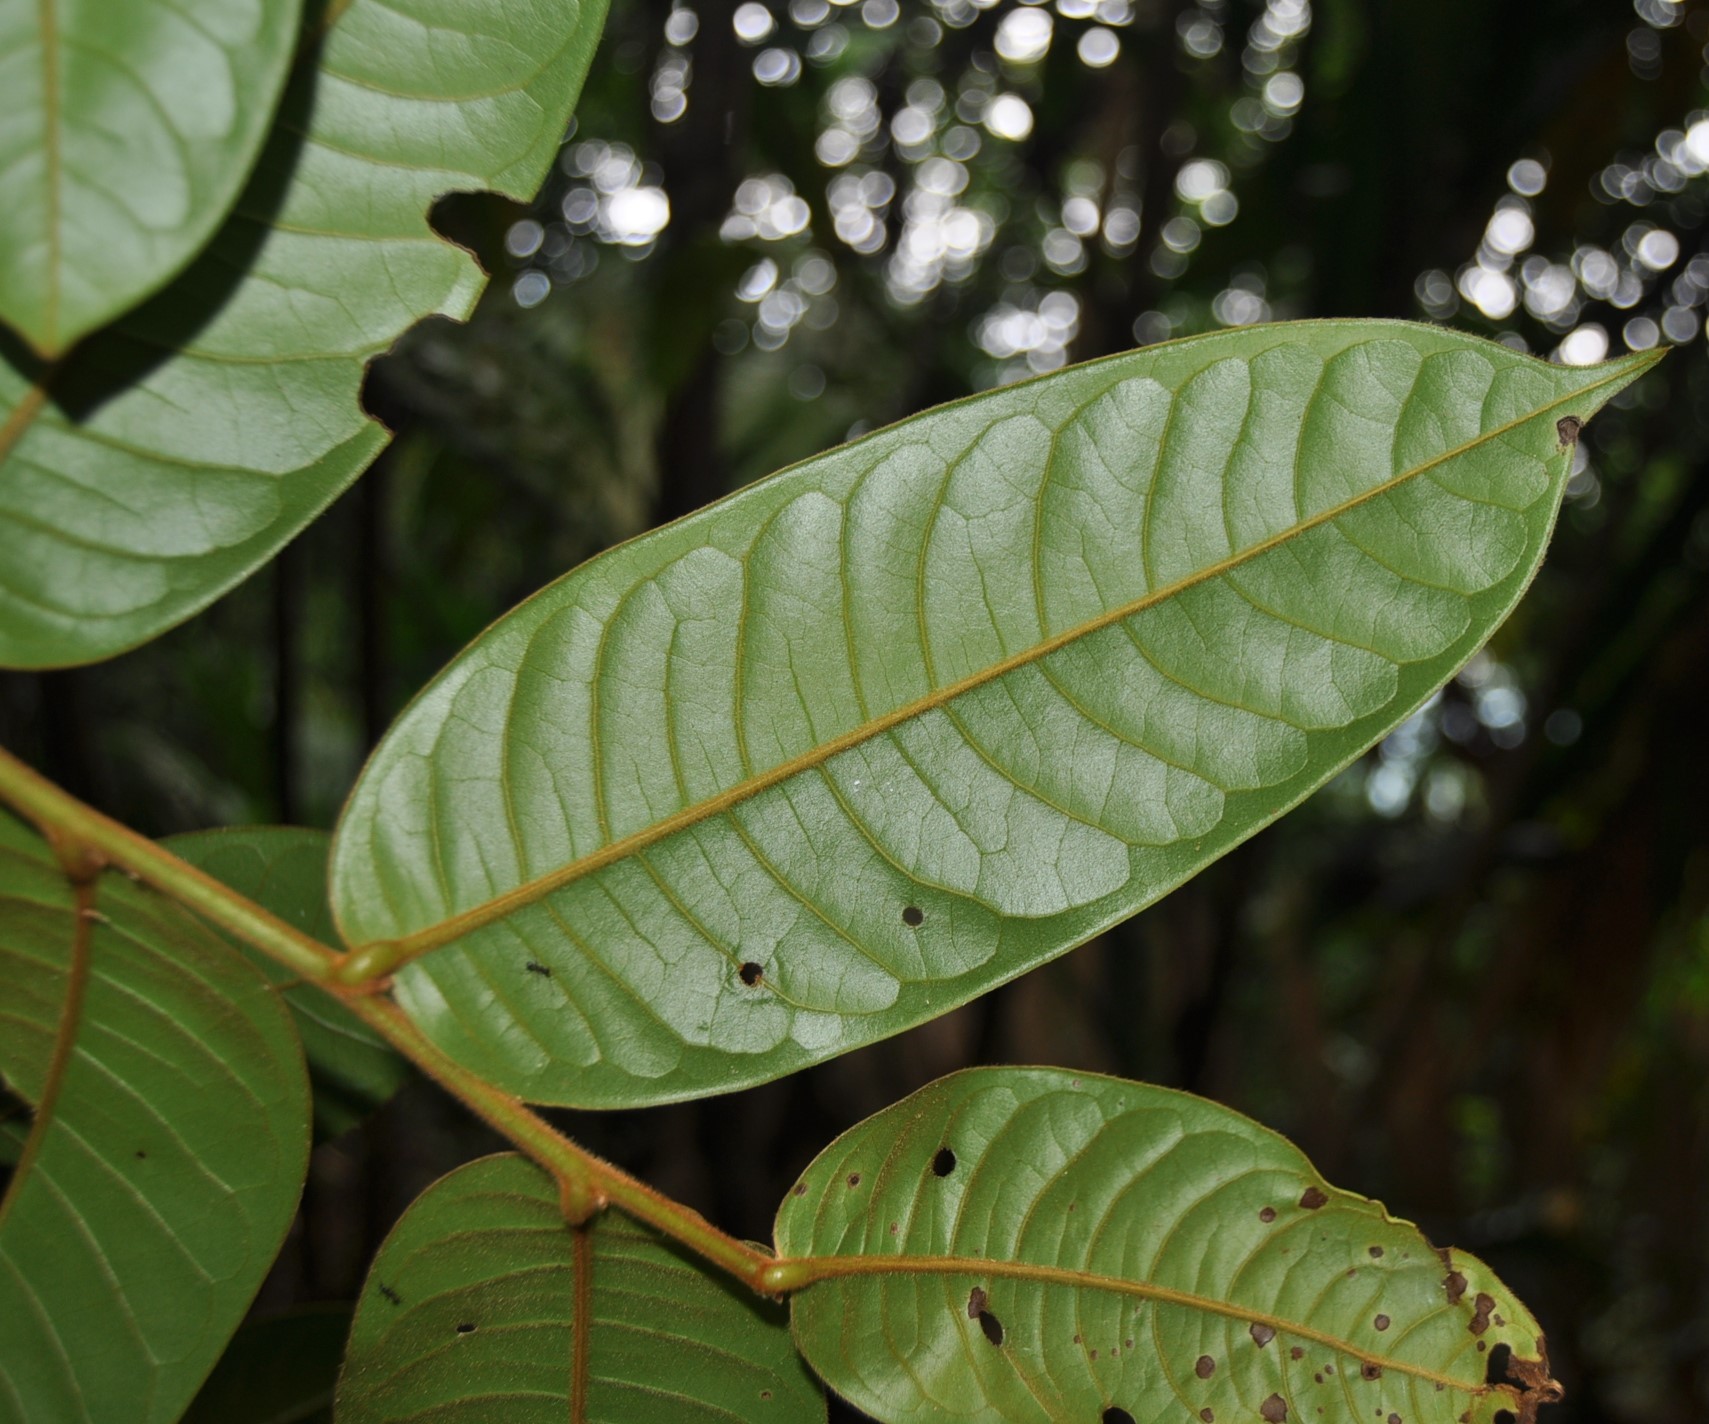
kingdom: Plantae
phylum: Tracheophyta
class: Magnoliopsida
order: Magnoliales
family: Annonaceae
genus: Guatteria
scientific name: Guatteria pudica
